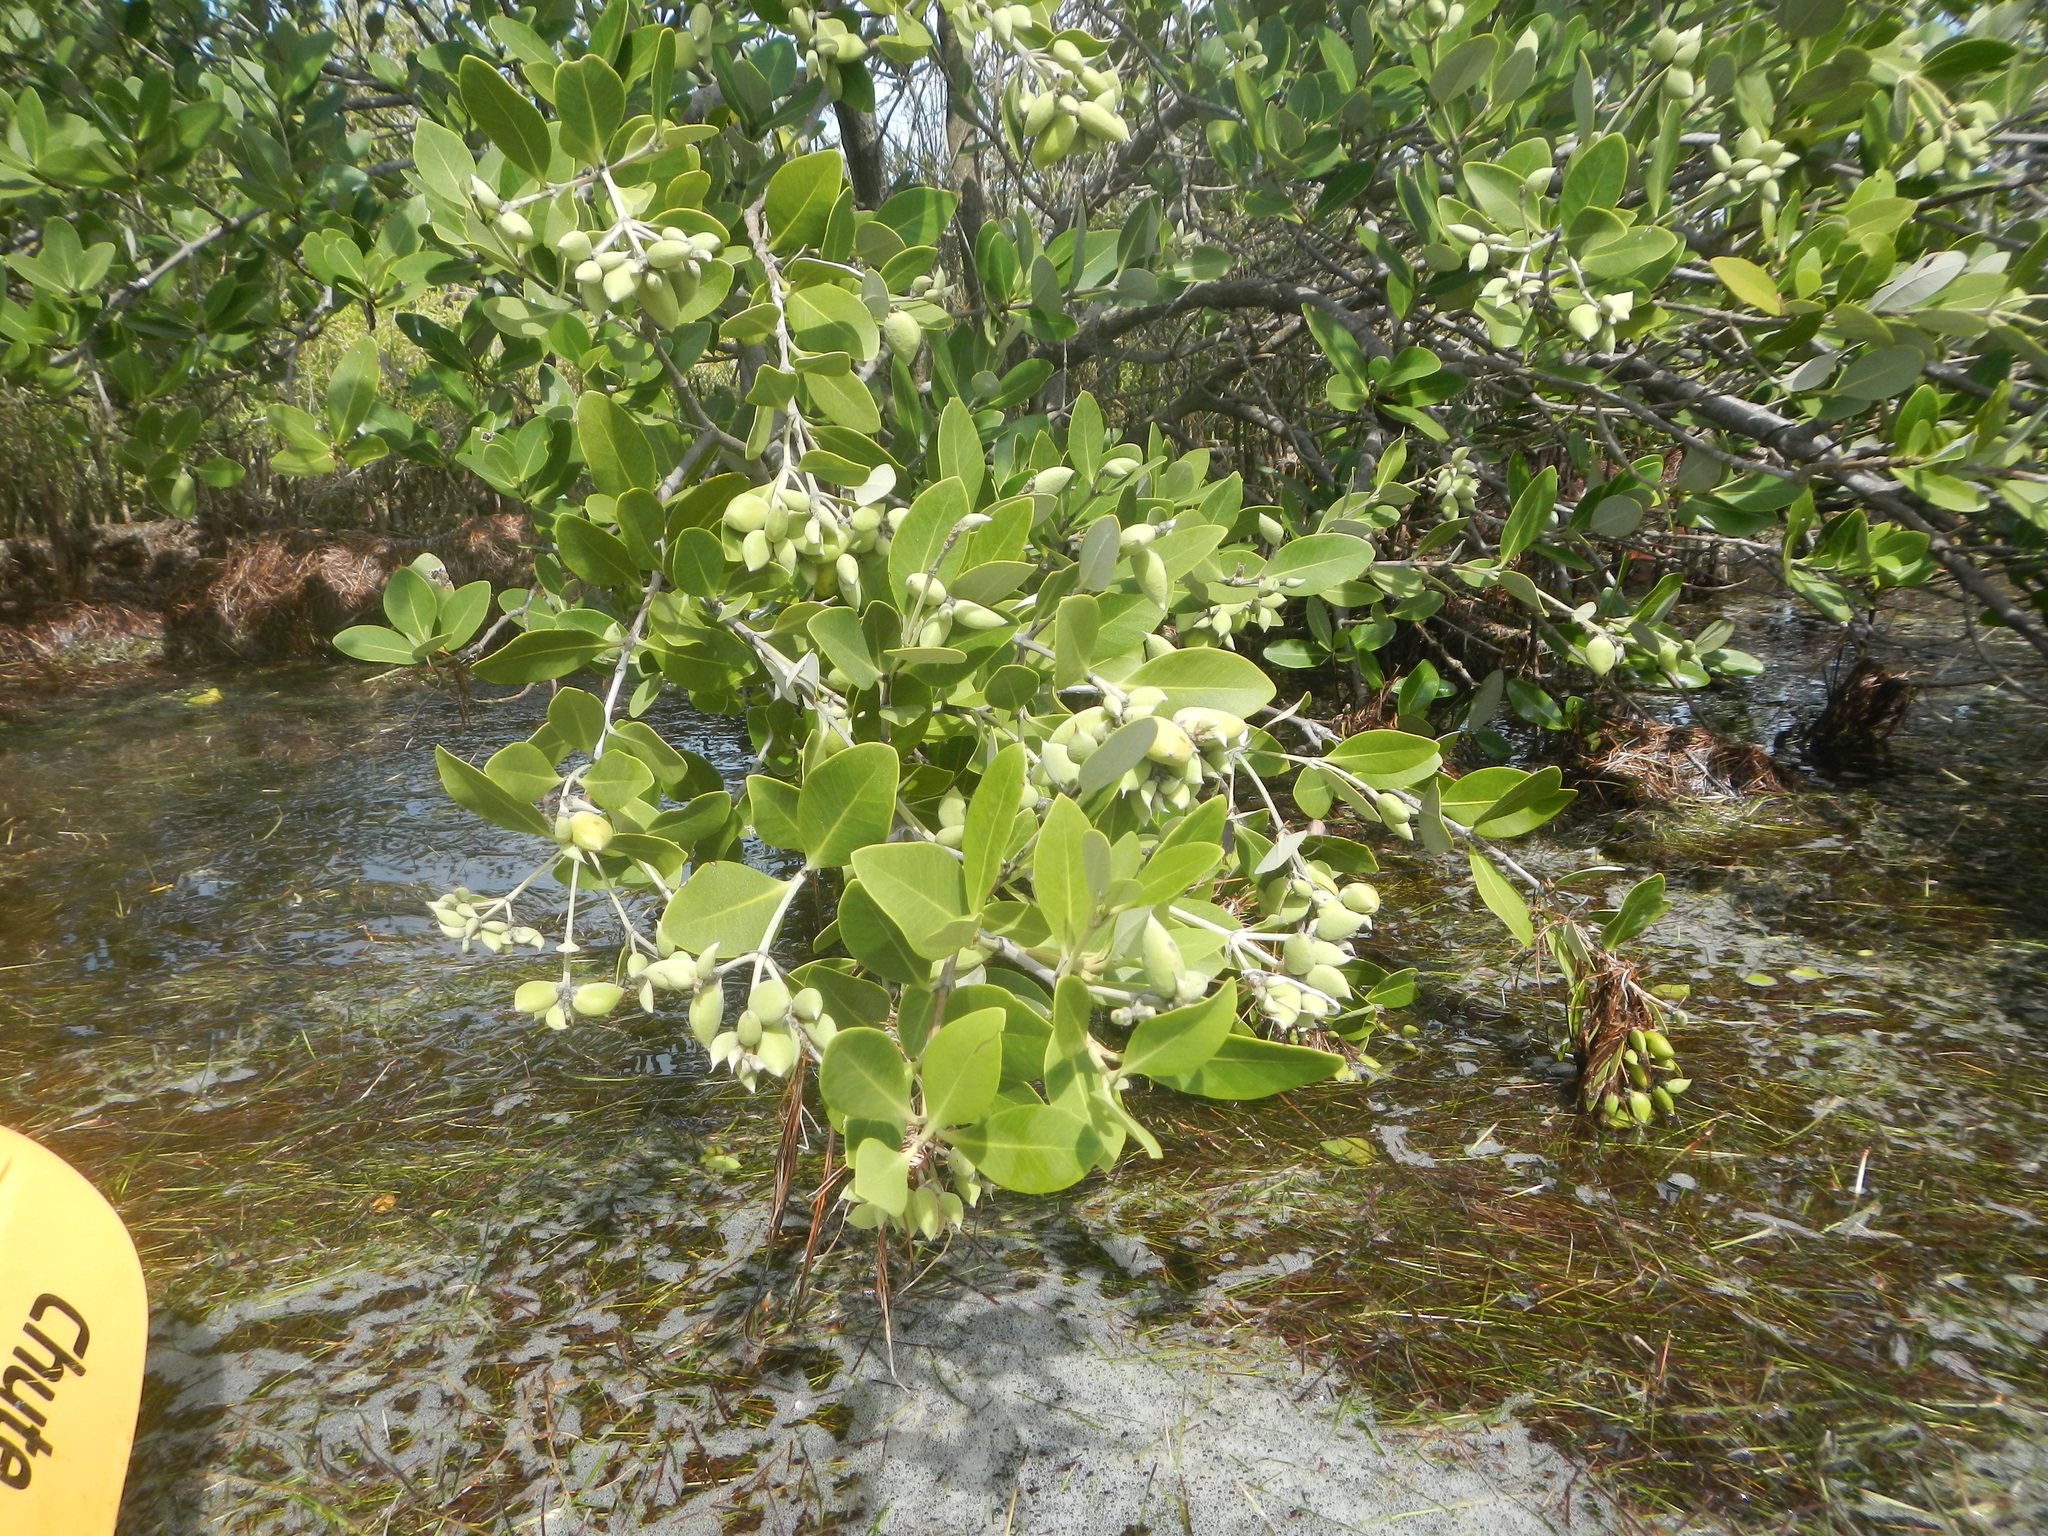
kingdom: Plantae
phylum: Tracheophyta
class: Magnoliopsida
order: Lamiales
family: Acanthaceae
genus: Avicennia
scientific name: Avicennia germinans
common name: Black mangrove
